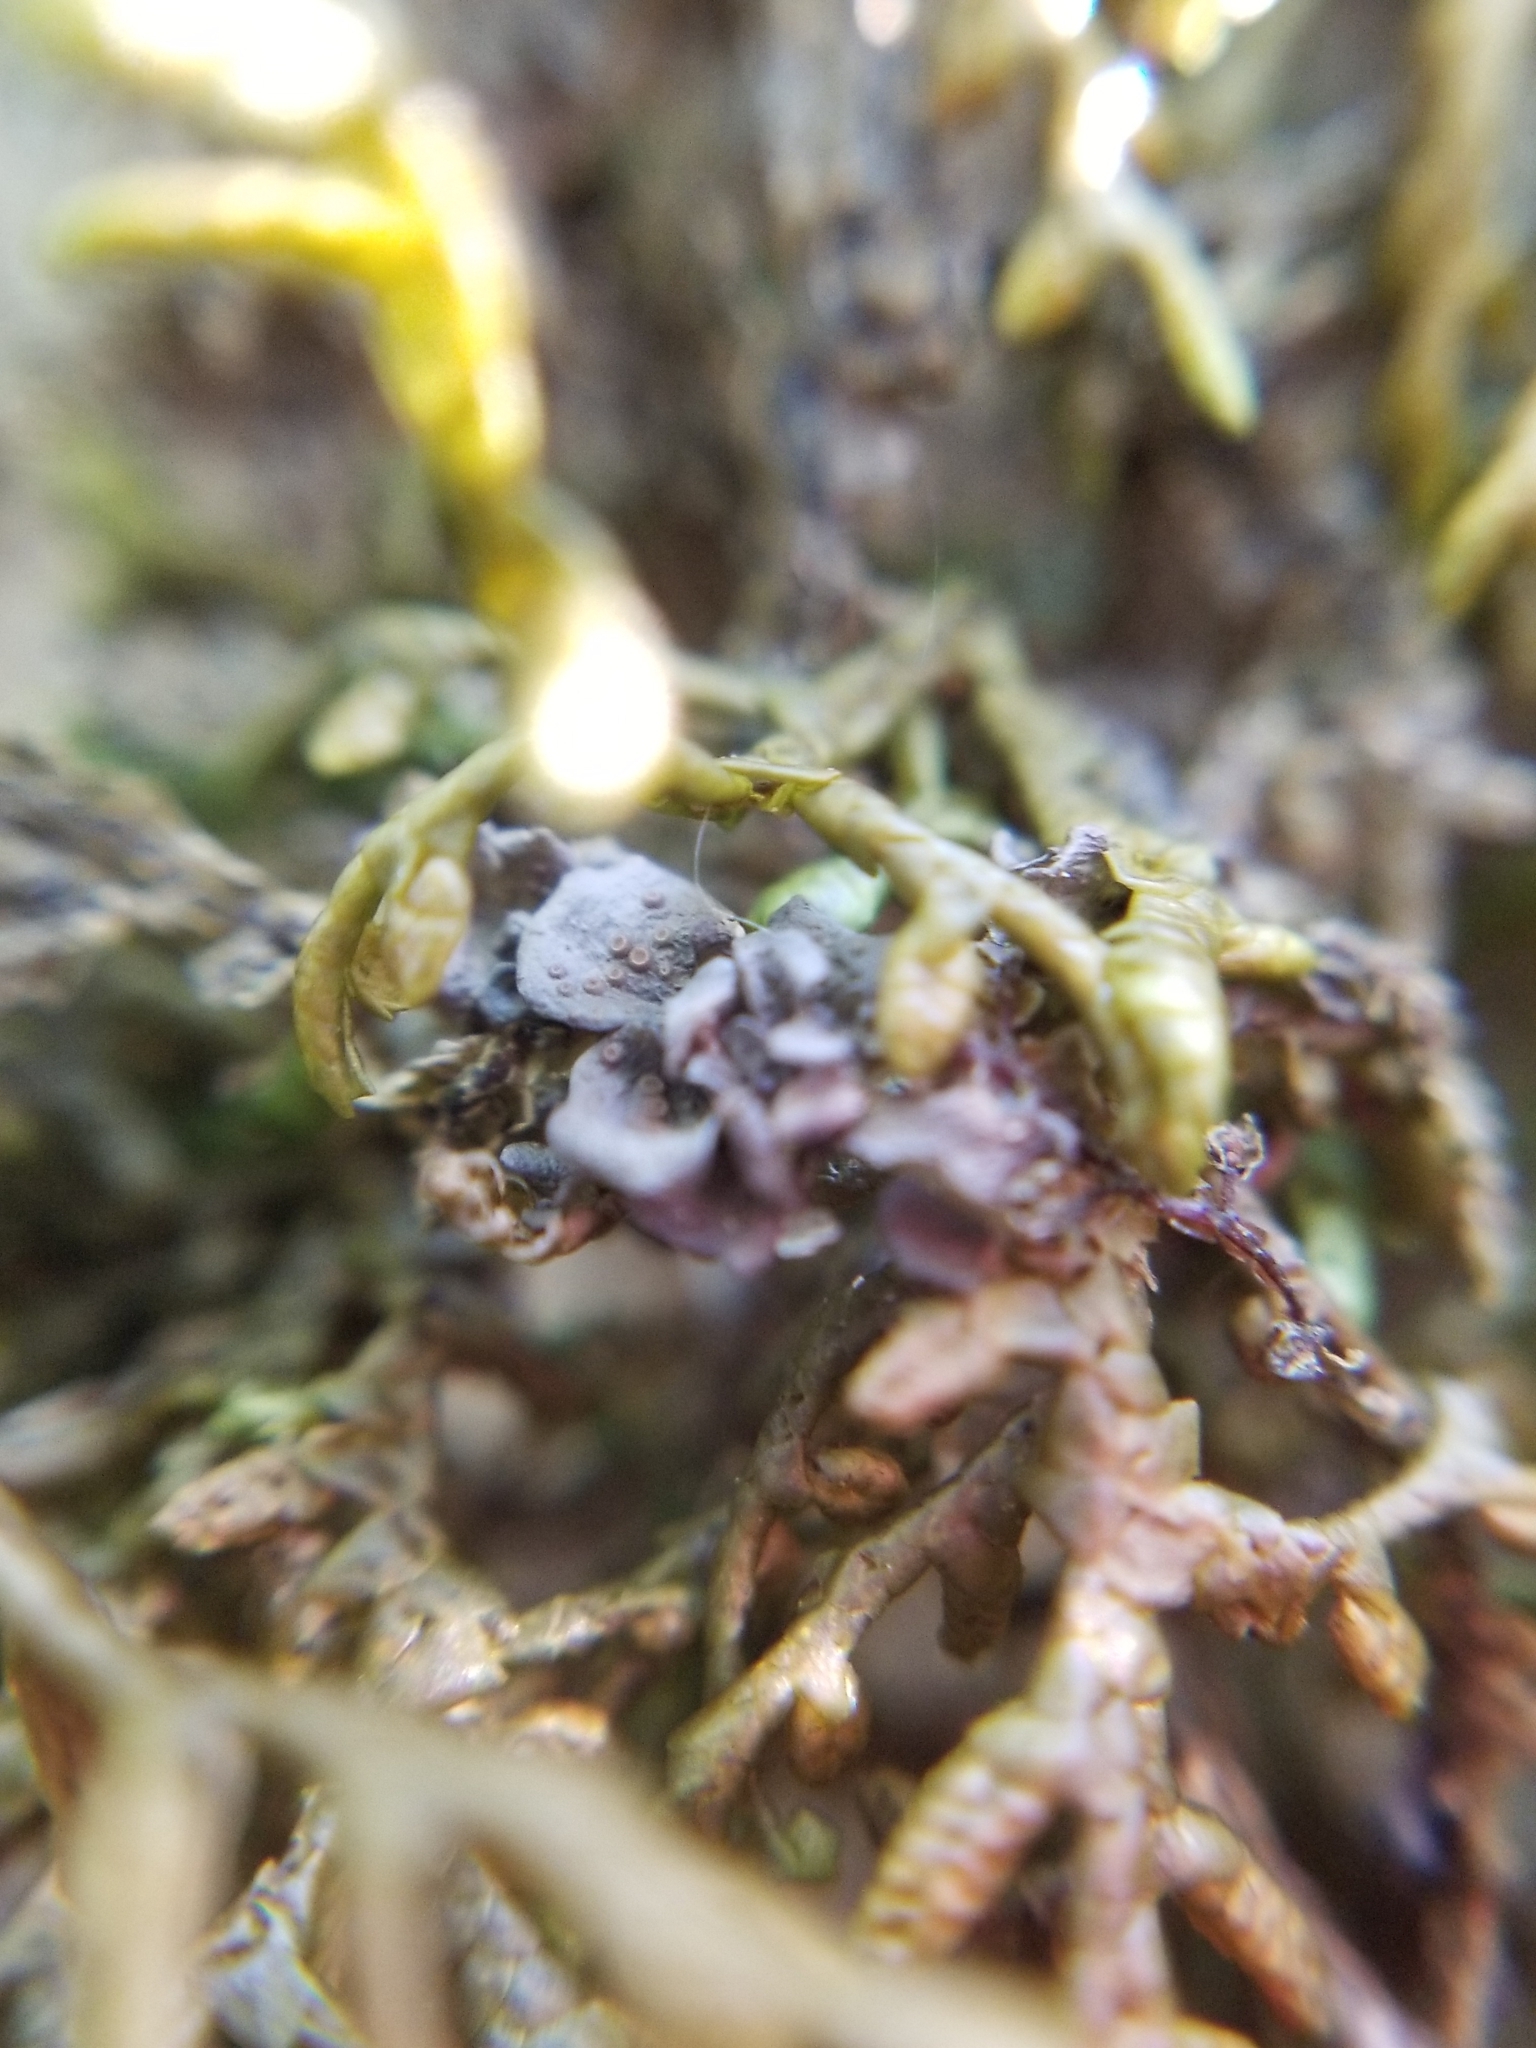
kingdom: Fungi
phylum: Ascomycota
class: Lecanoromycetes
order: Peltigerales
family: Collemataceae
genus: Scytinium
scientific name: Scytinium polycarpum
